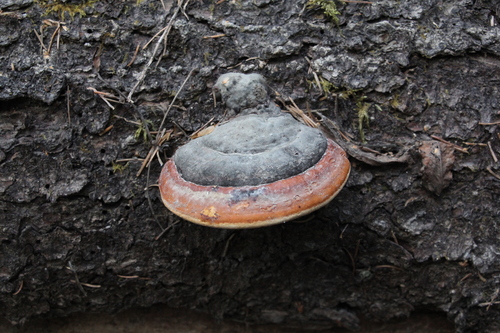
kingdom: Fungi
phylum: Basidiomycota
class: Agaricomycetes
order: Polyporales
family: Fomitopsidaceae
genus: Fomitopsis
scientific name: Fomitopsis pinicola
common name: Red-belted bracket
